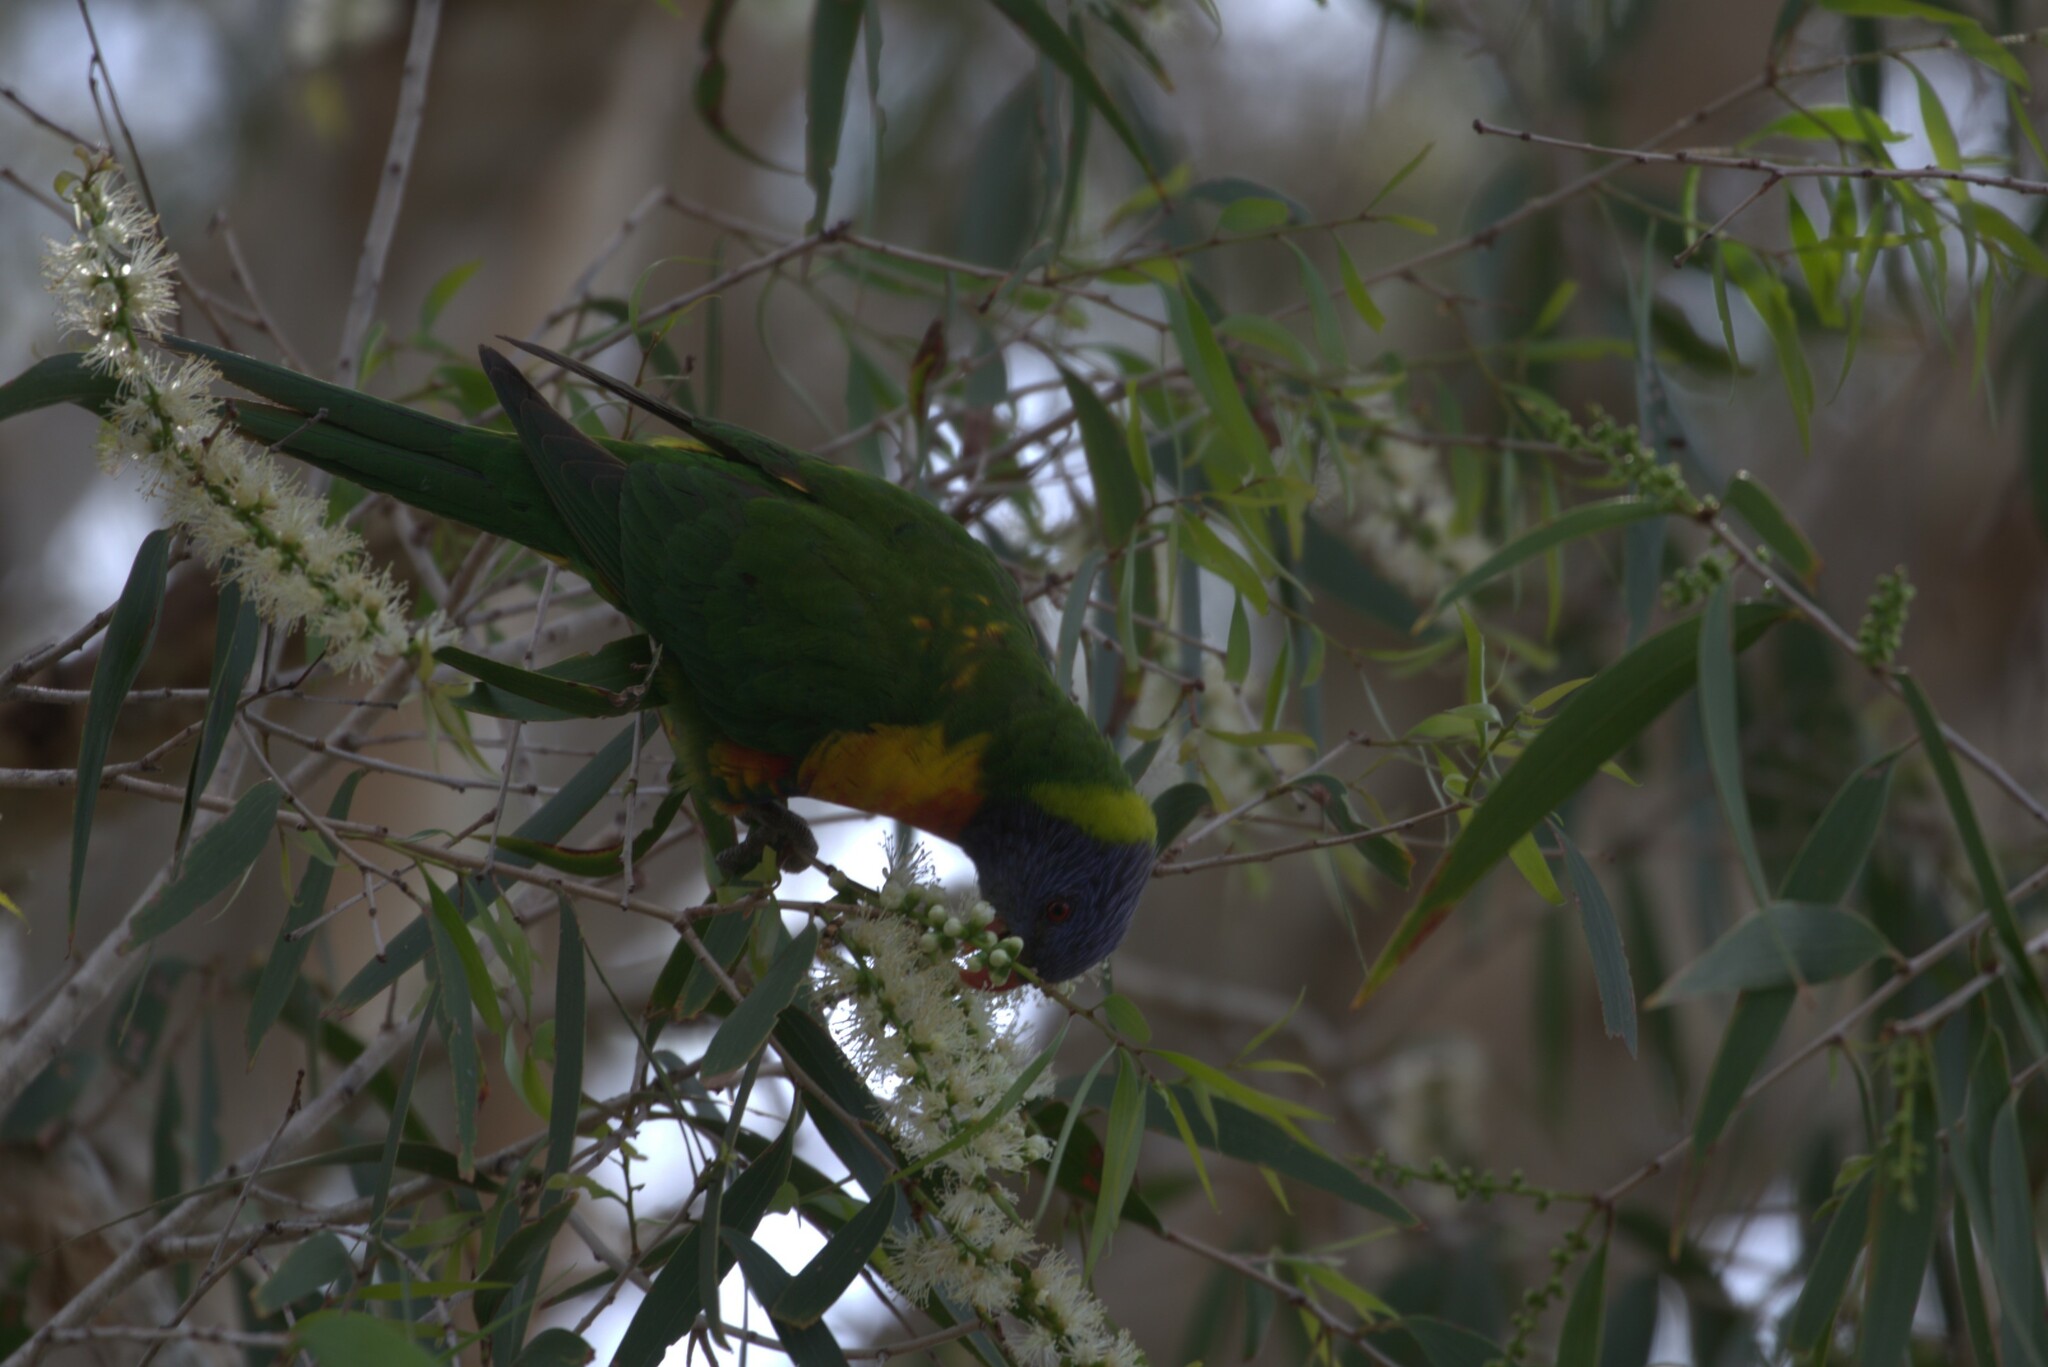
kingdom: Animalia
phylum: Chordata
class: Aves
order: Psittaciformes
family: Psittacidae
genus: Trichoglossus
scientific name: Trichoglossus haematodus
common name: Coconut lorikeet
